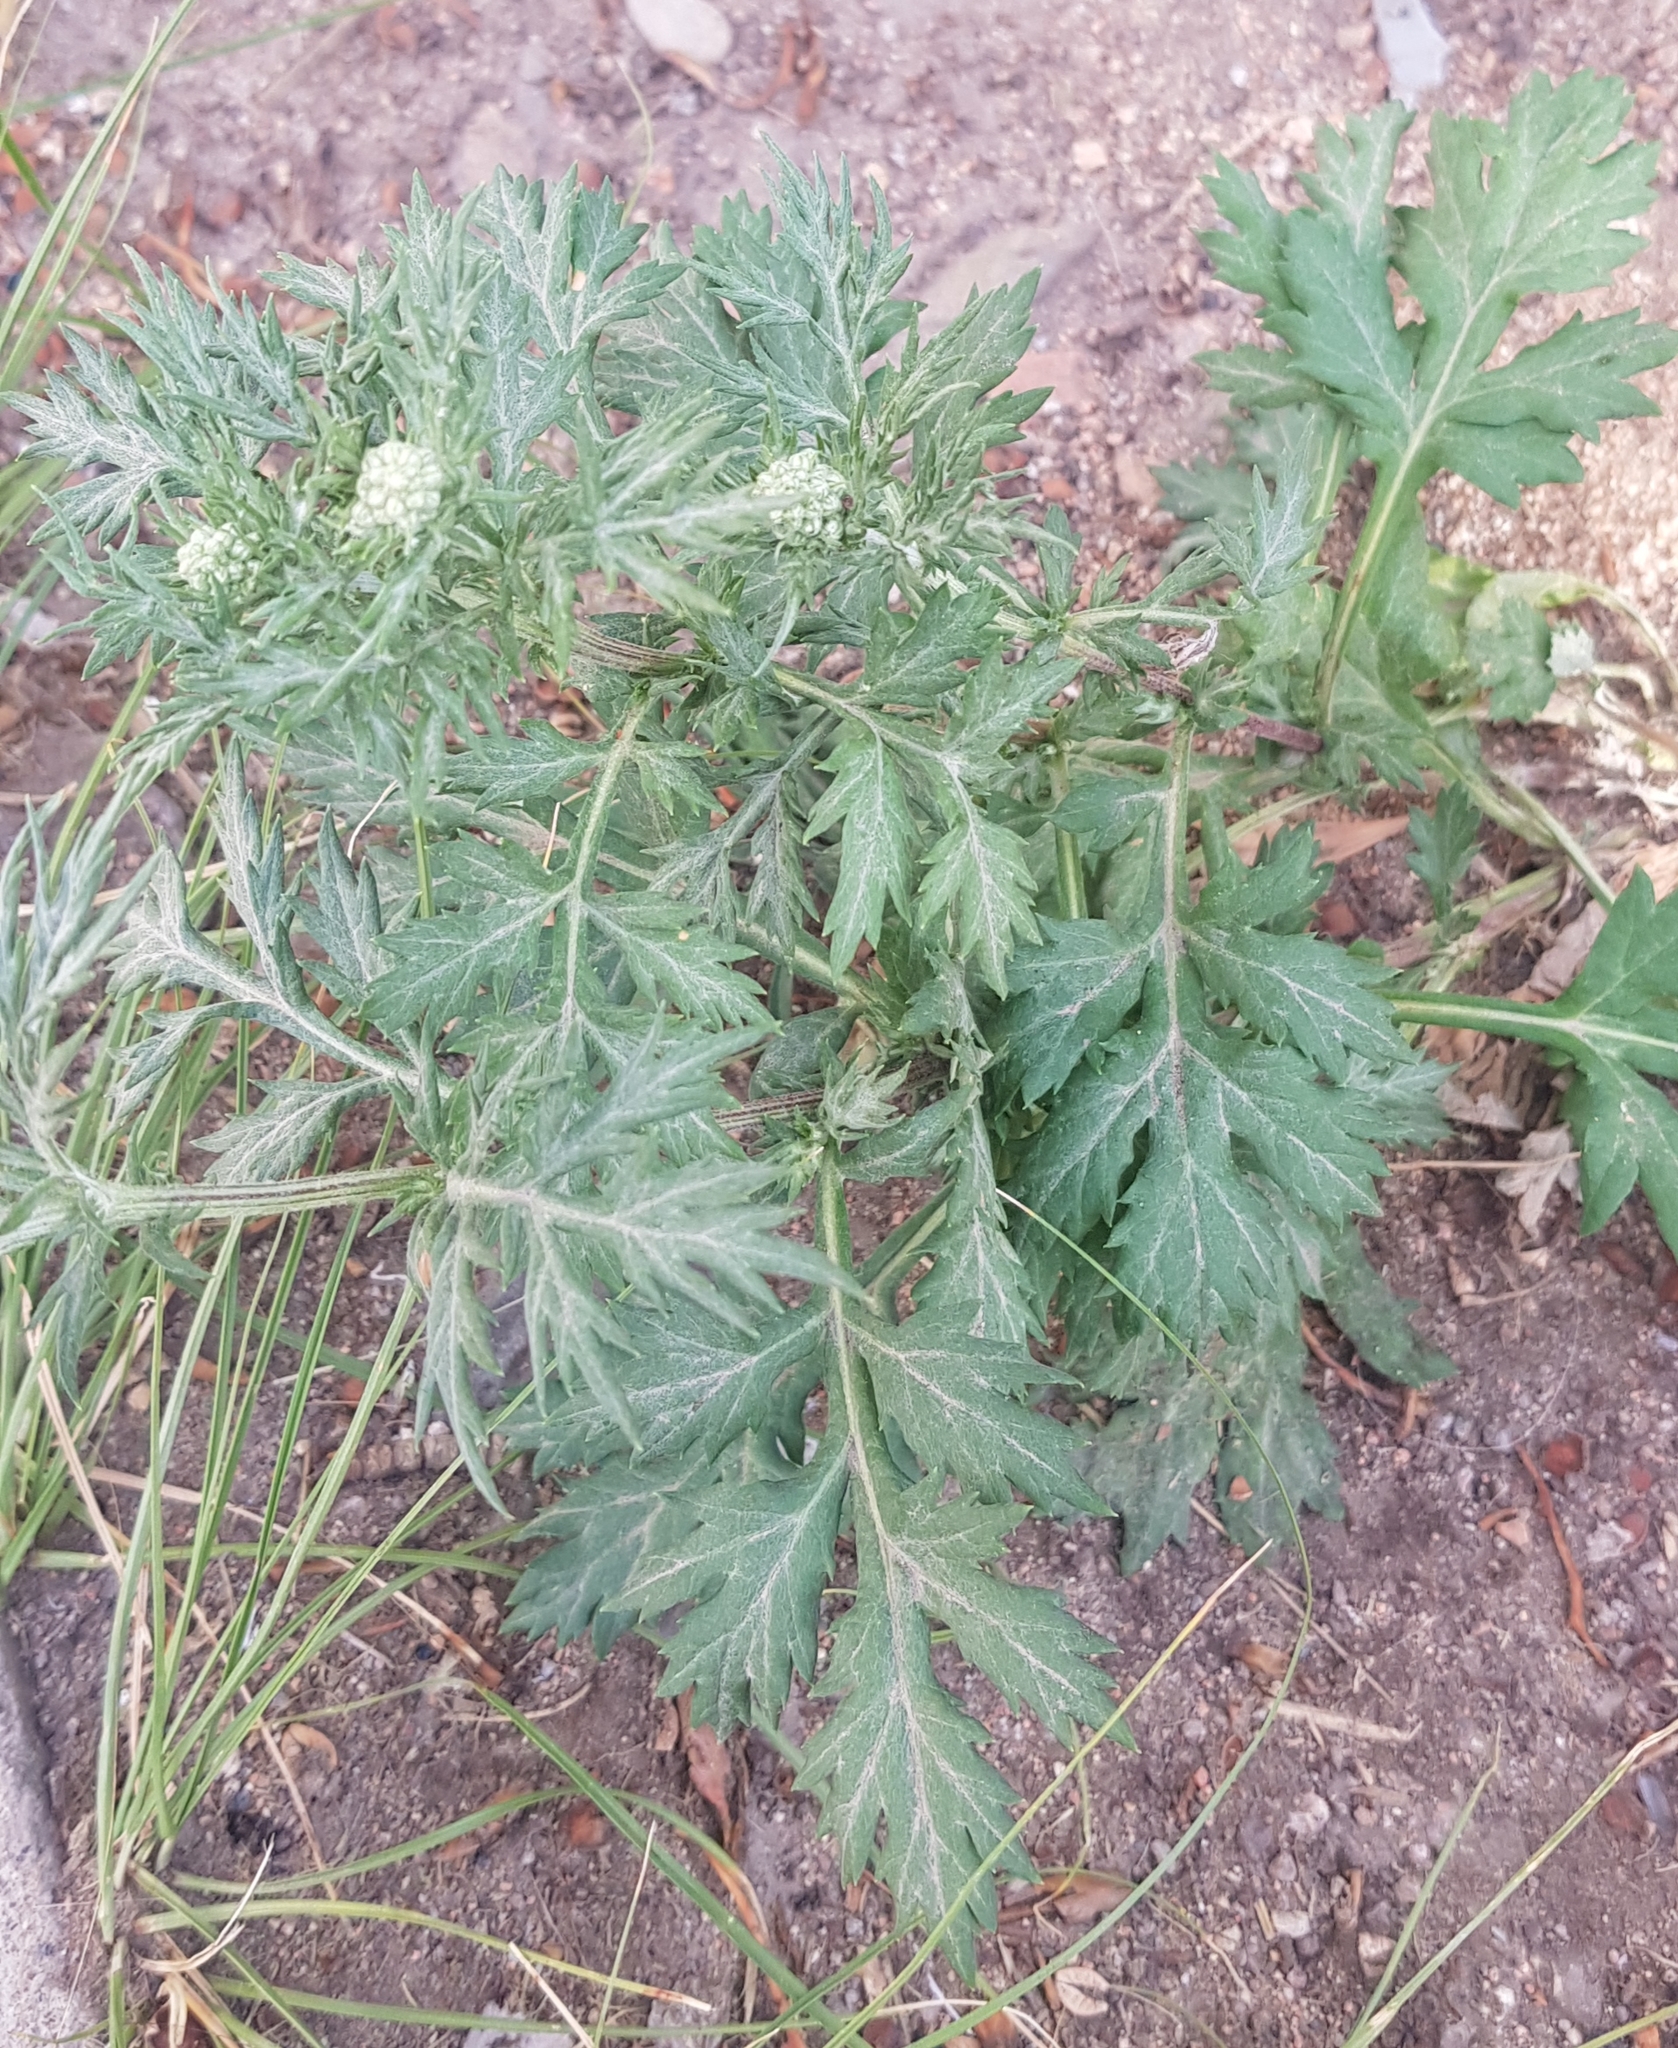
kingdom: Plantae
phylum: Tracheophyta
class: Magnoliopsida
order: Asterales
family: Asteraceae
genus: Artemisia
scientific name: Artemisia sieversiana
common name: Sieversian wormwood
